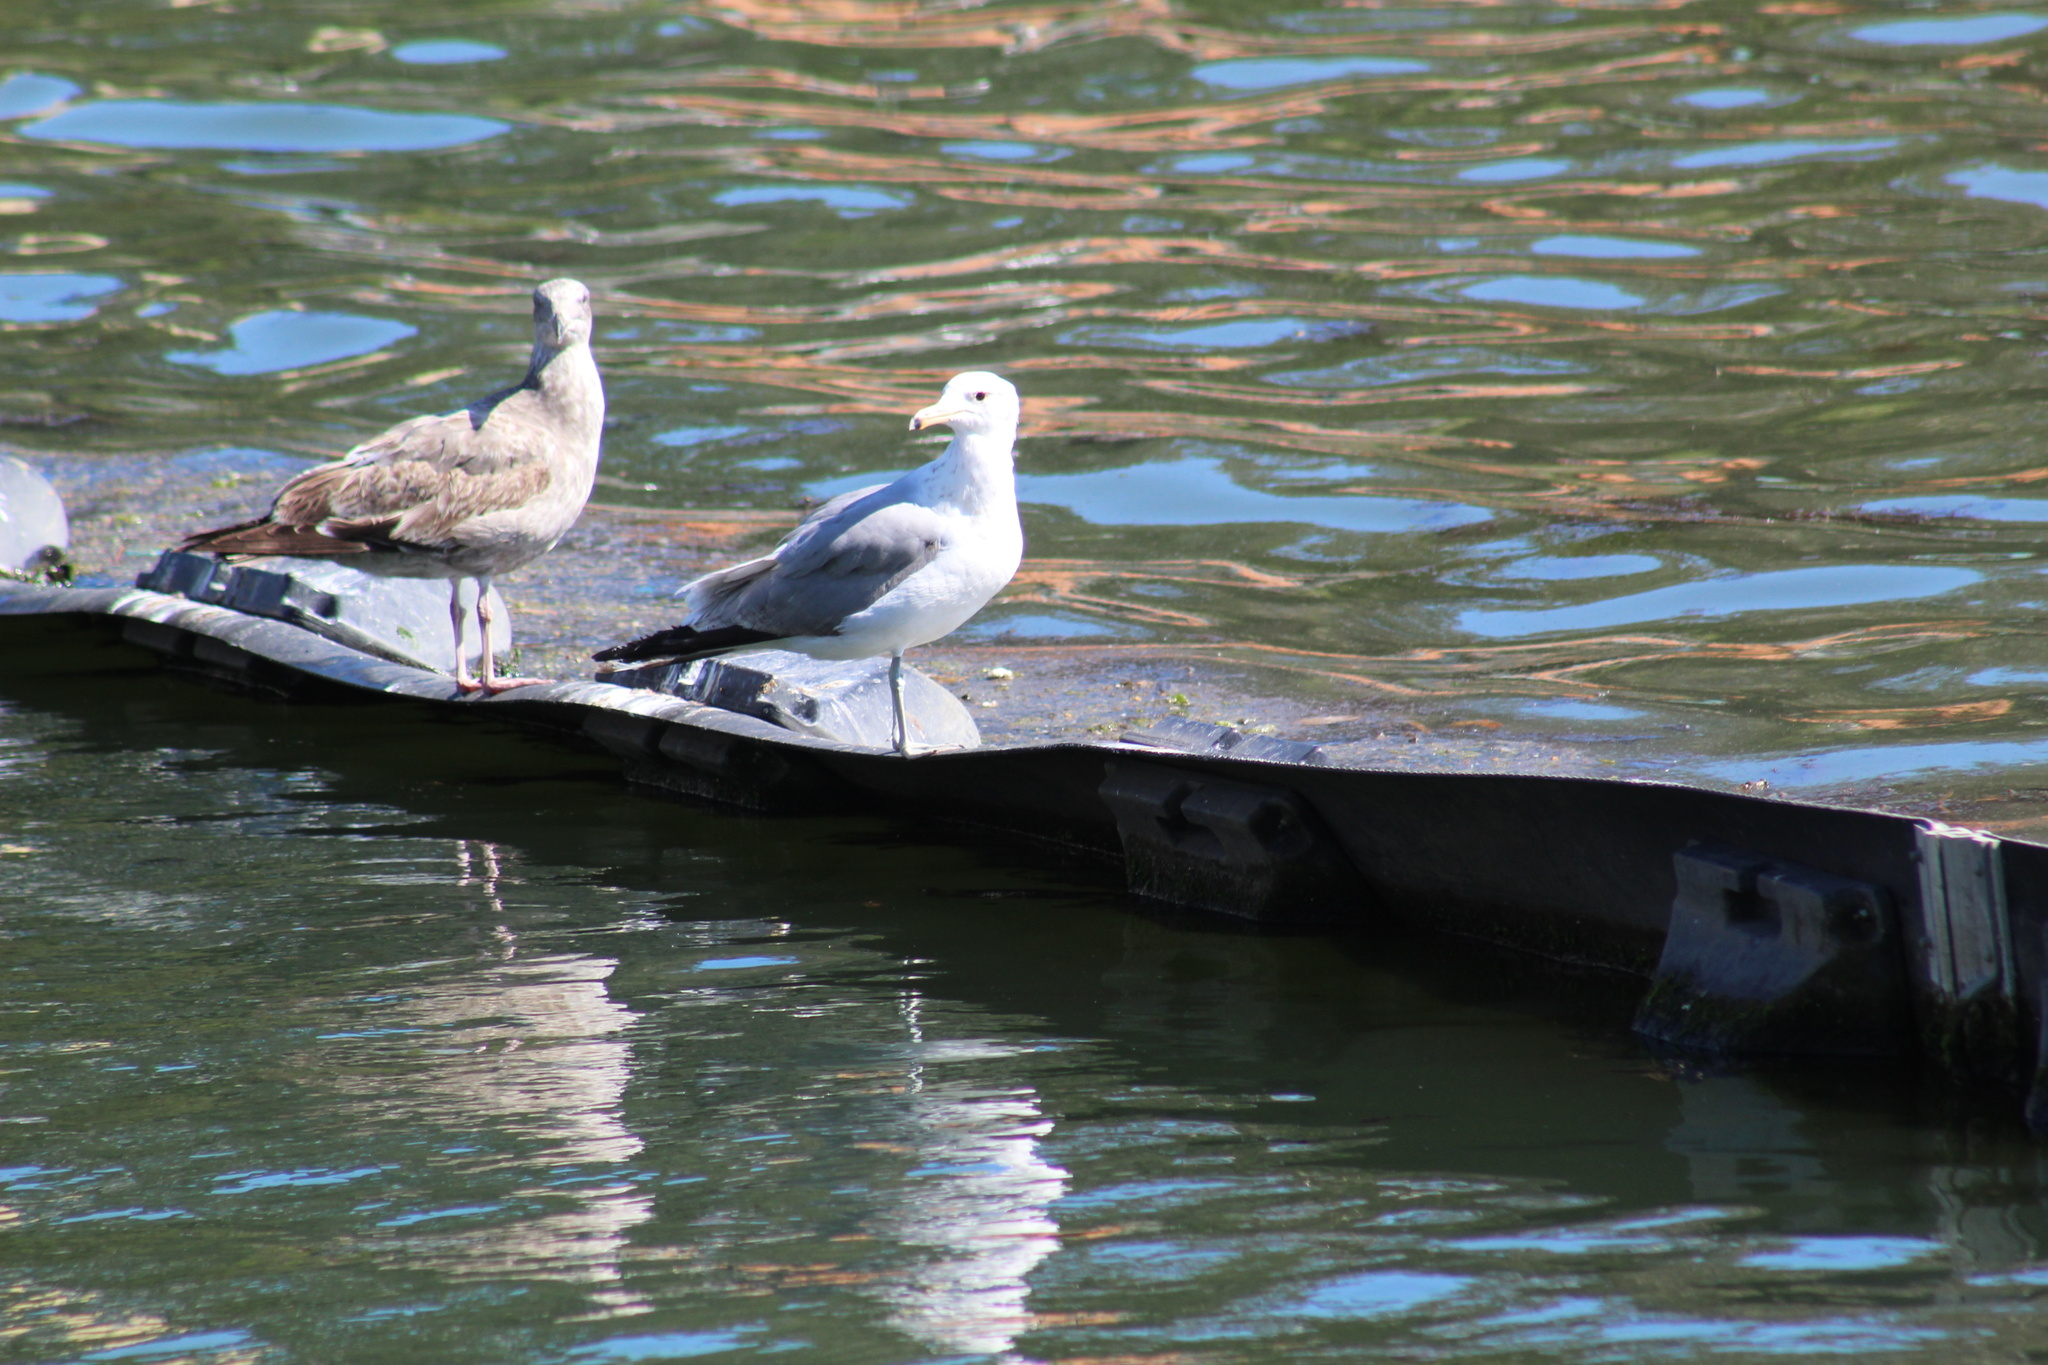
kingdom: Animalia
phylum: Chordata
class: Aves
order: Charadriiformes
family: Laridae
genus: Larus
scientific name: Larus californicus
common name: California gull
